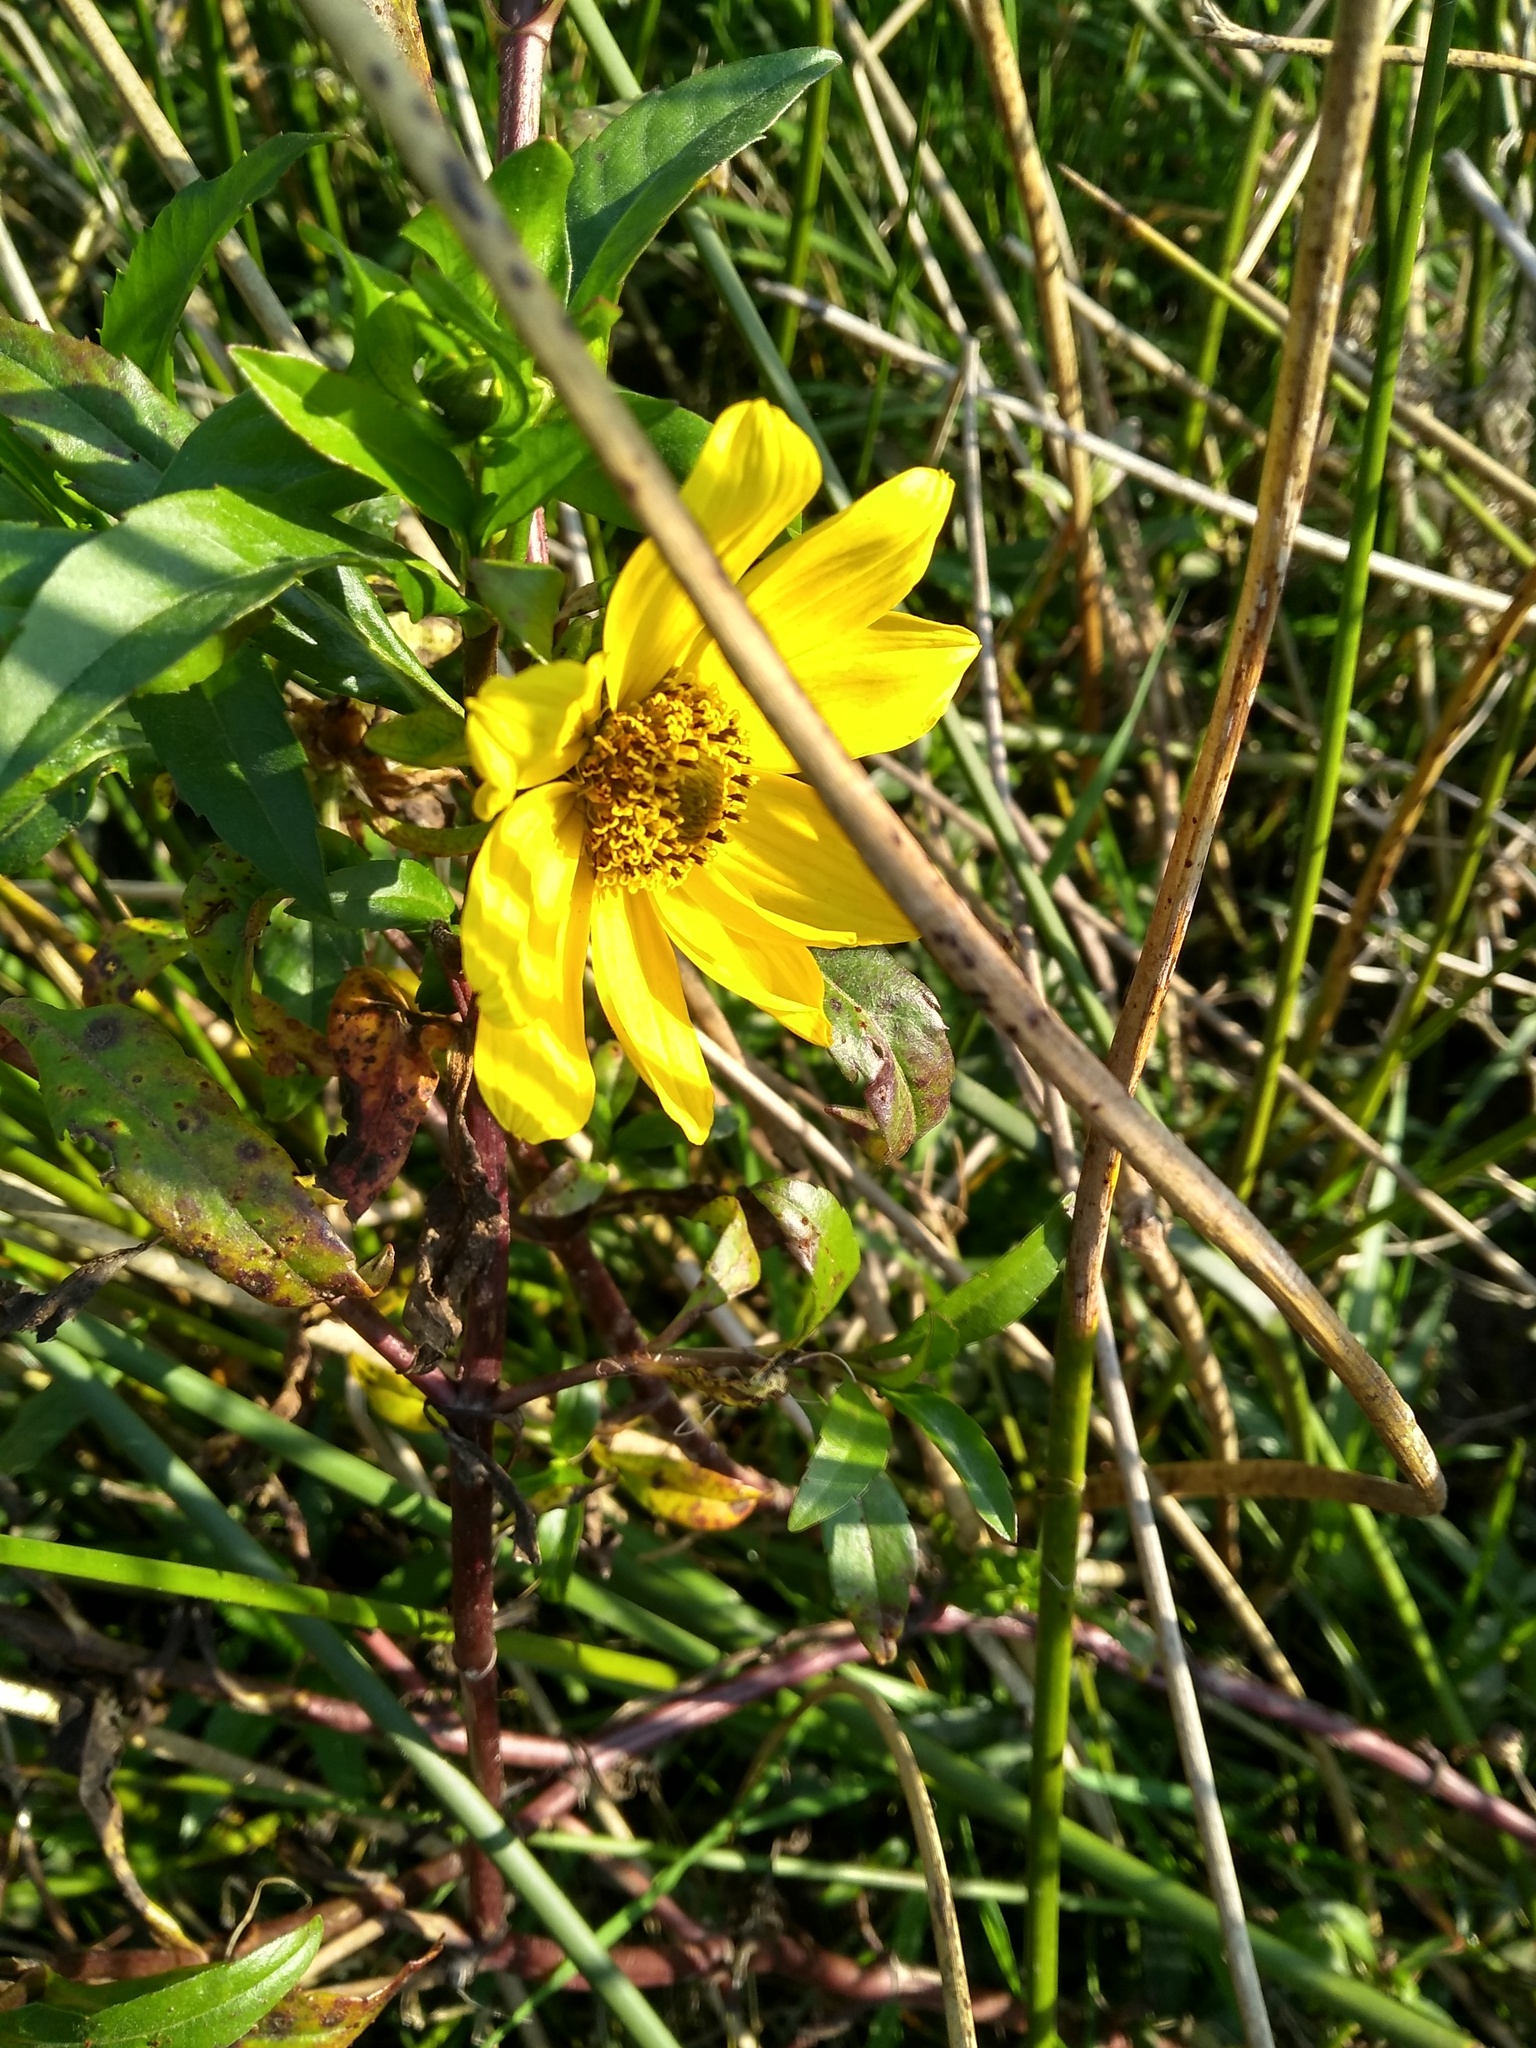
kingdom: Plantae
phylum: Tracheophyta
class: Magnoliopsida
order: Asterales
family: Asteraceae
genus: Bidens
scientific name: Bidens laevis
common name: Larger bur-marigold
